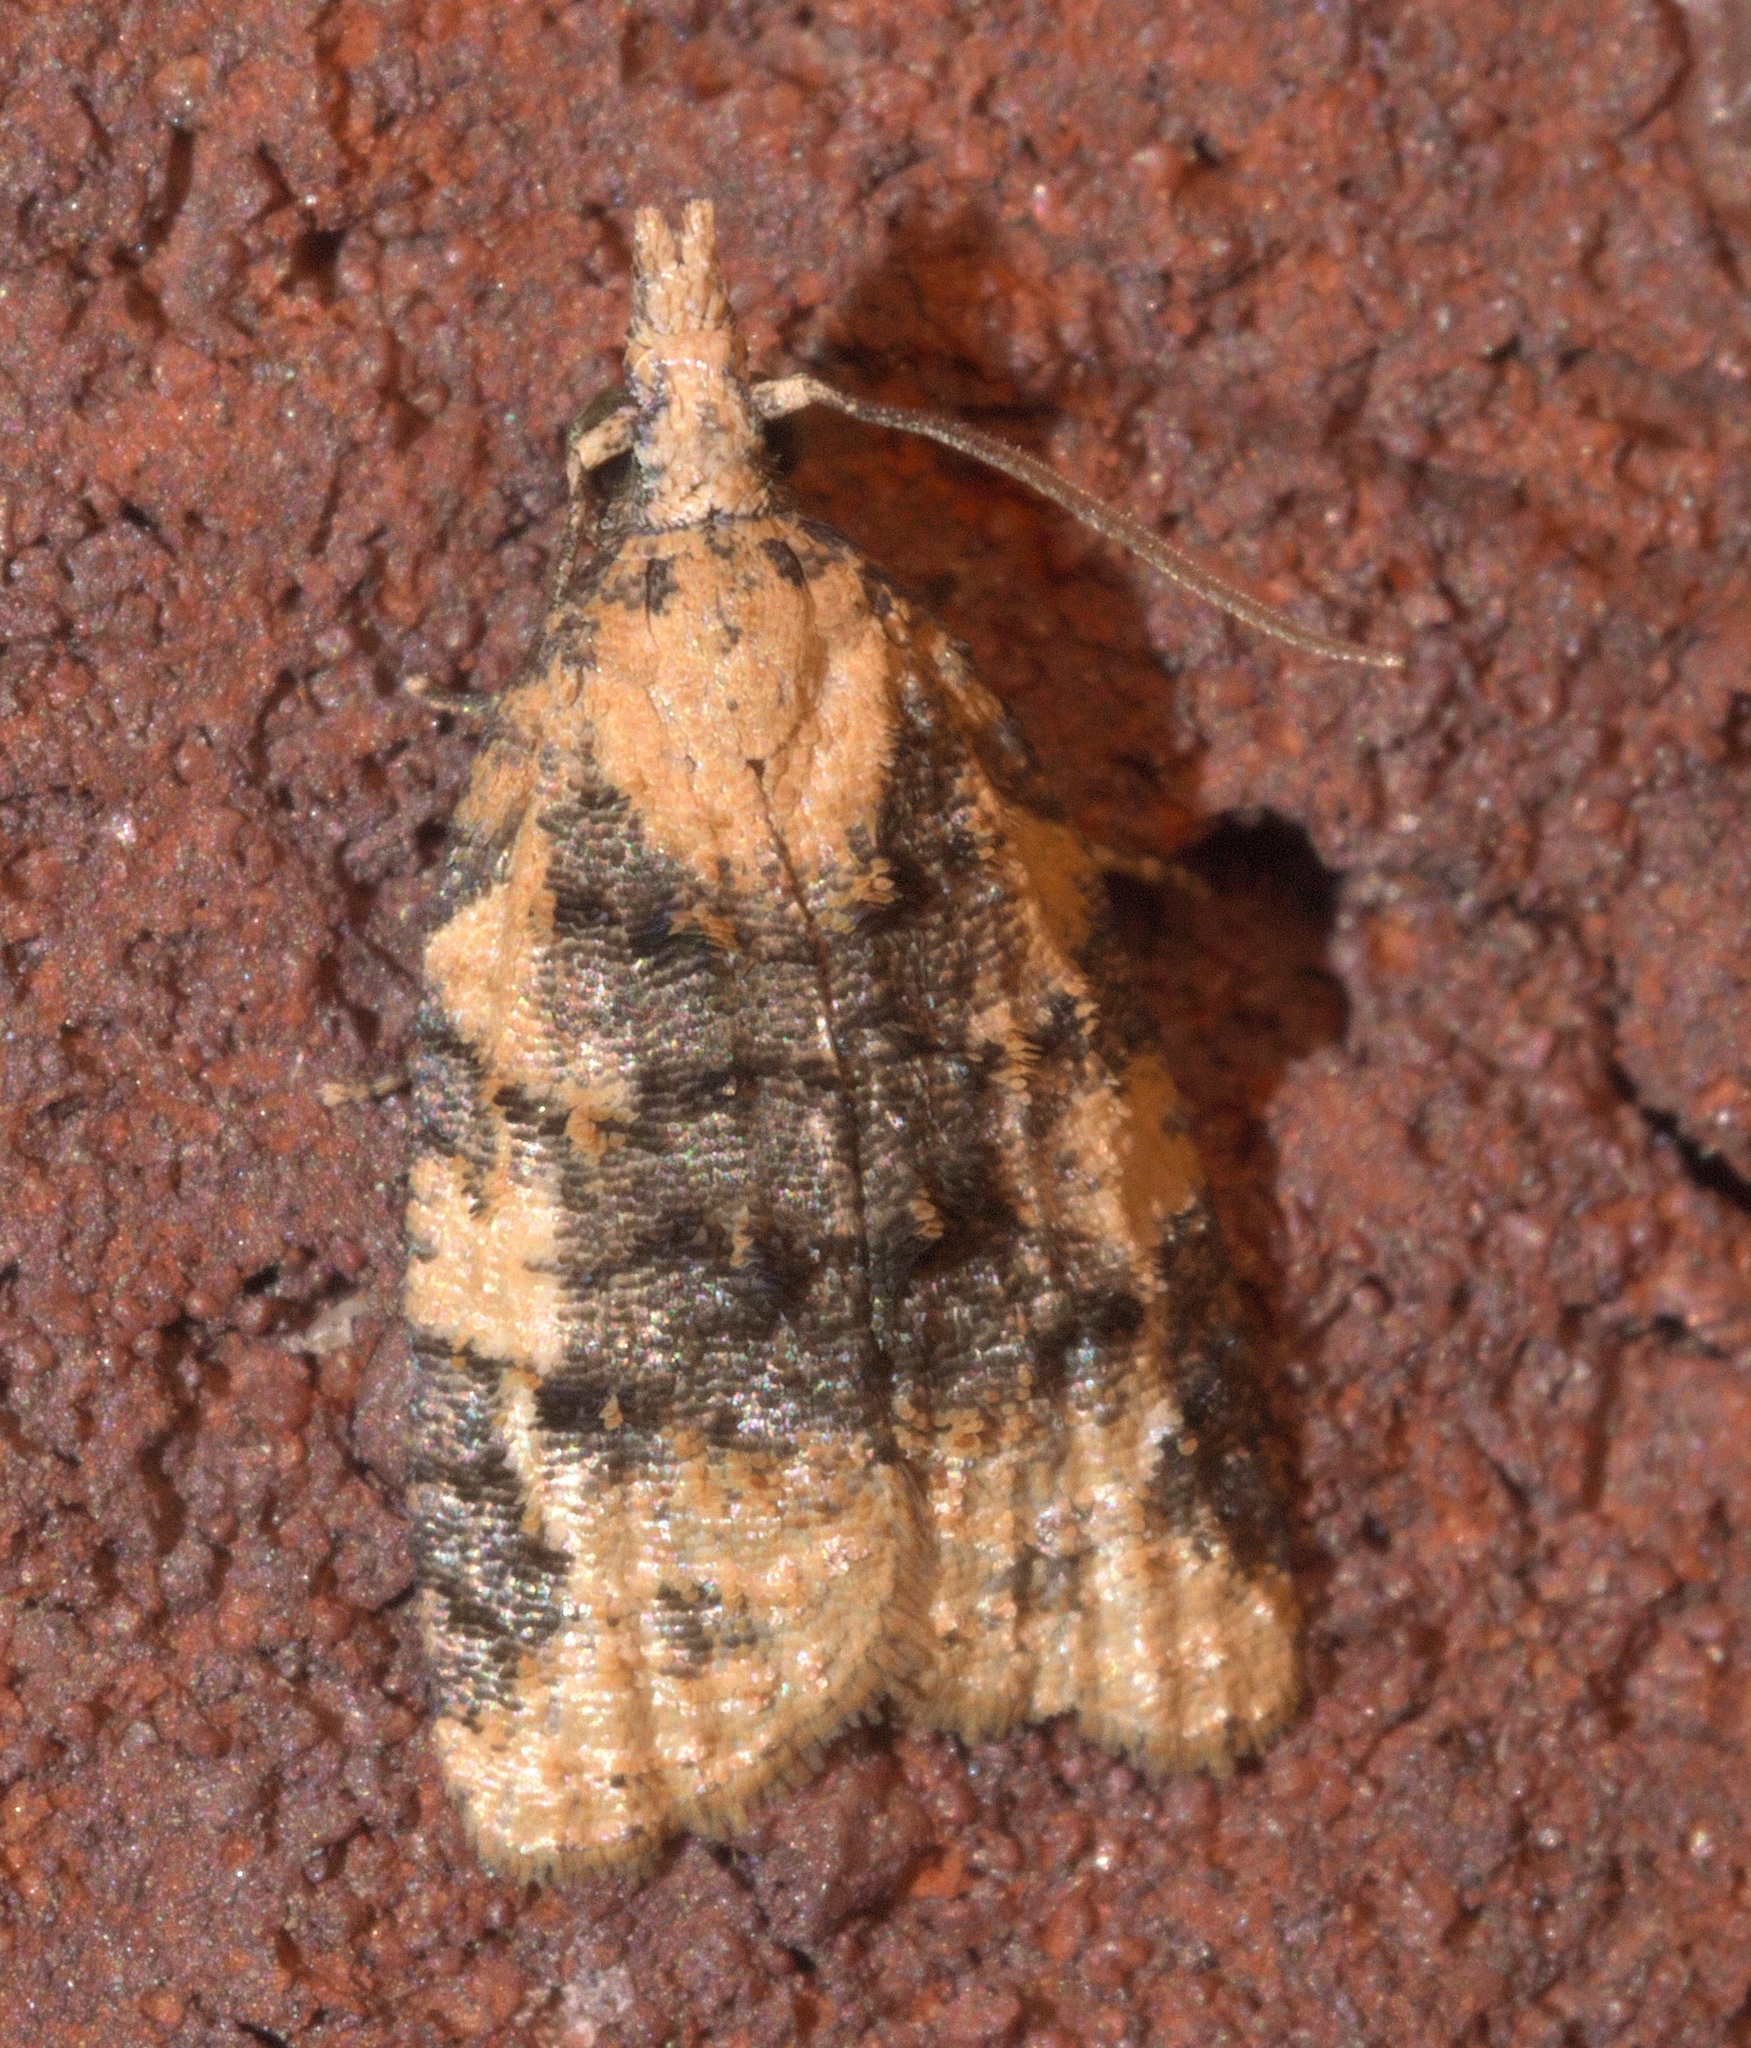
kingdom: Animalia
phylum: Arthropoda
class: Insecta
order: Lepidoptera
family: Tortricidae
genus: Platynota
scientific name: Platynota exasperatana
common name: Exasperating platynota moth
